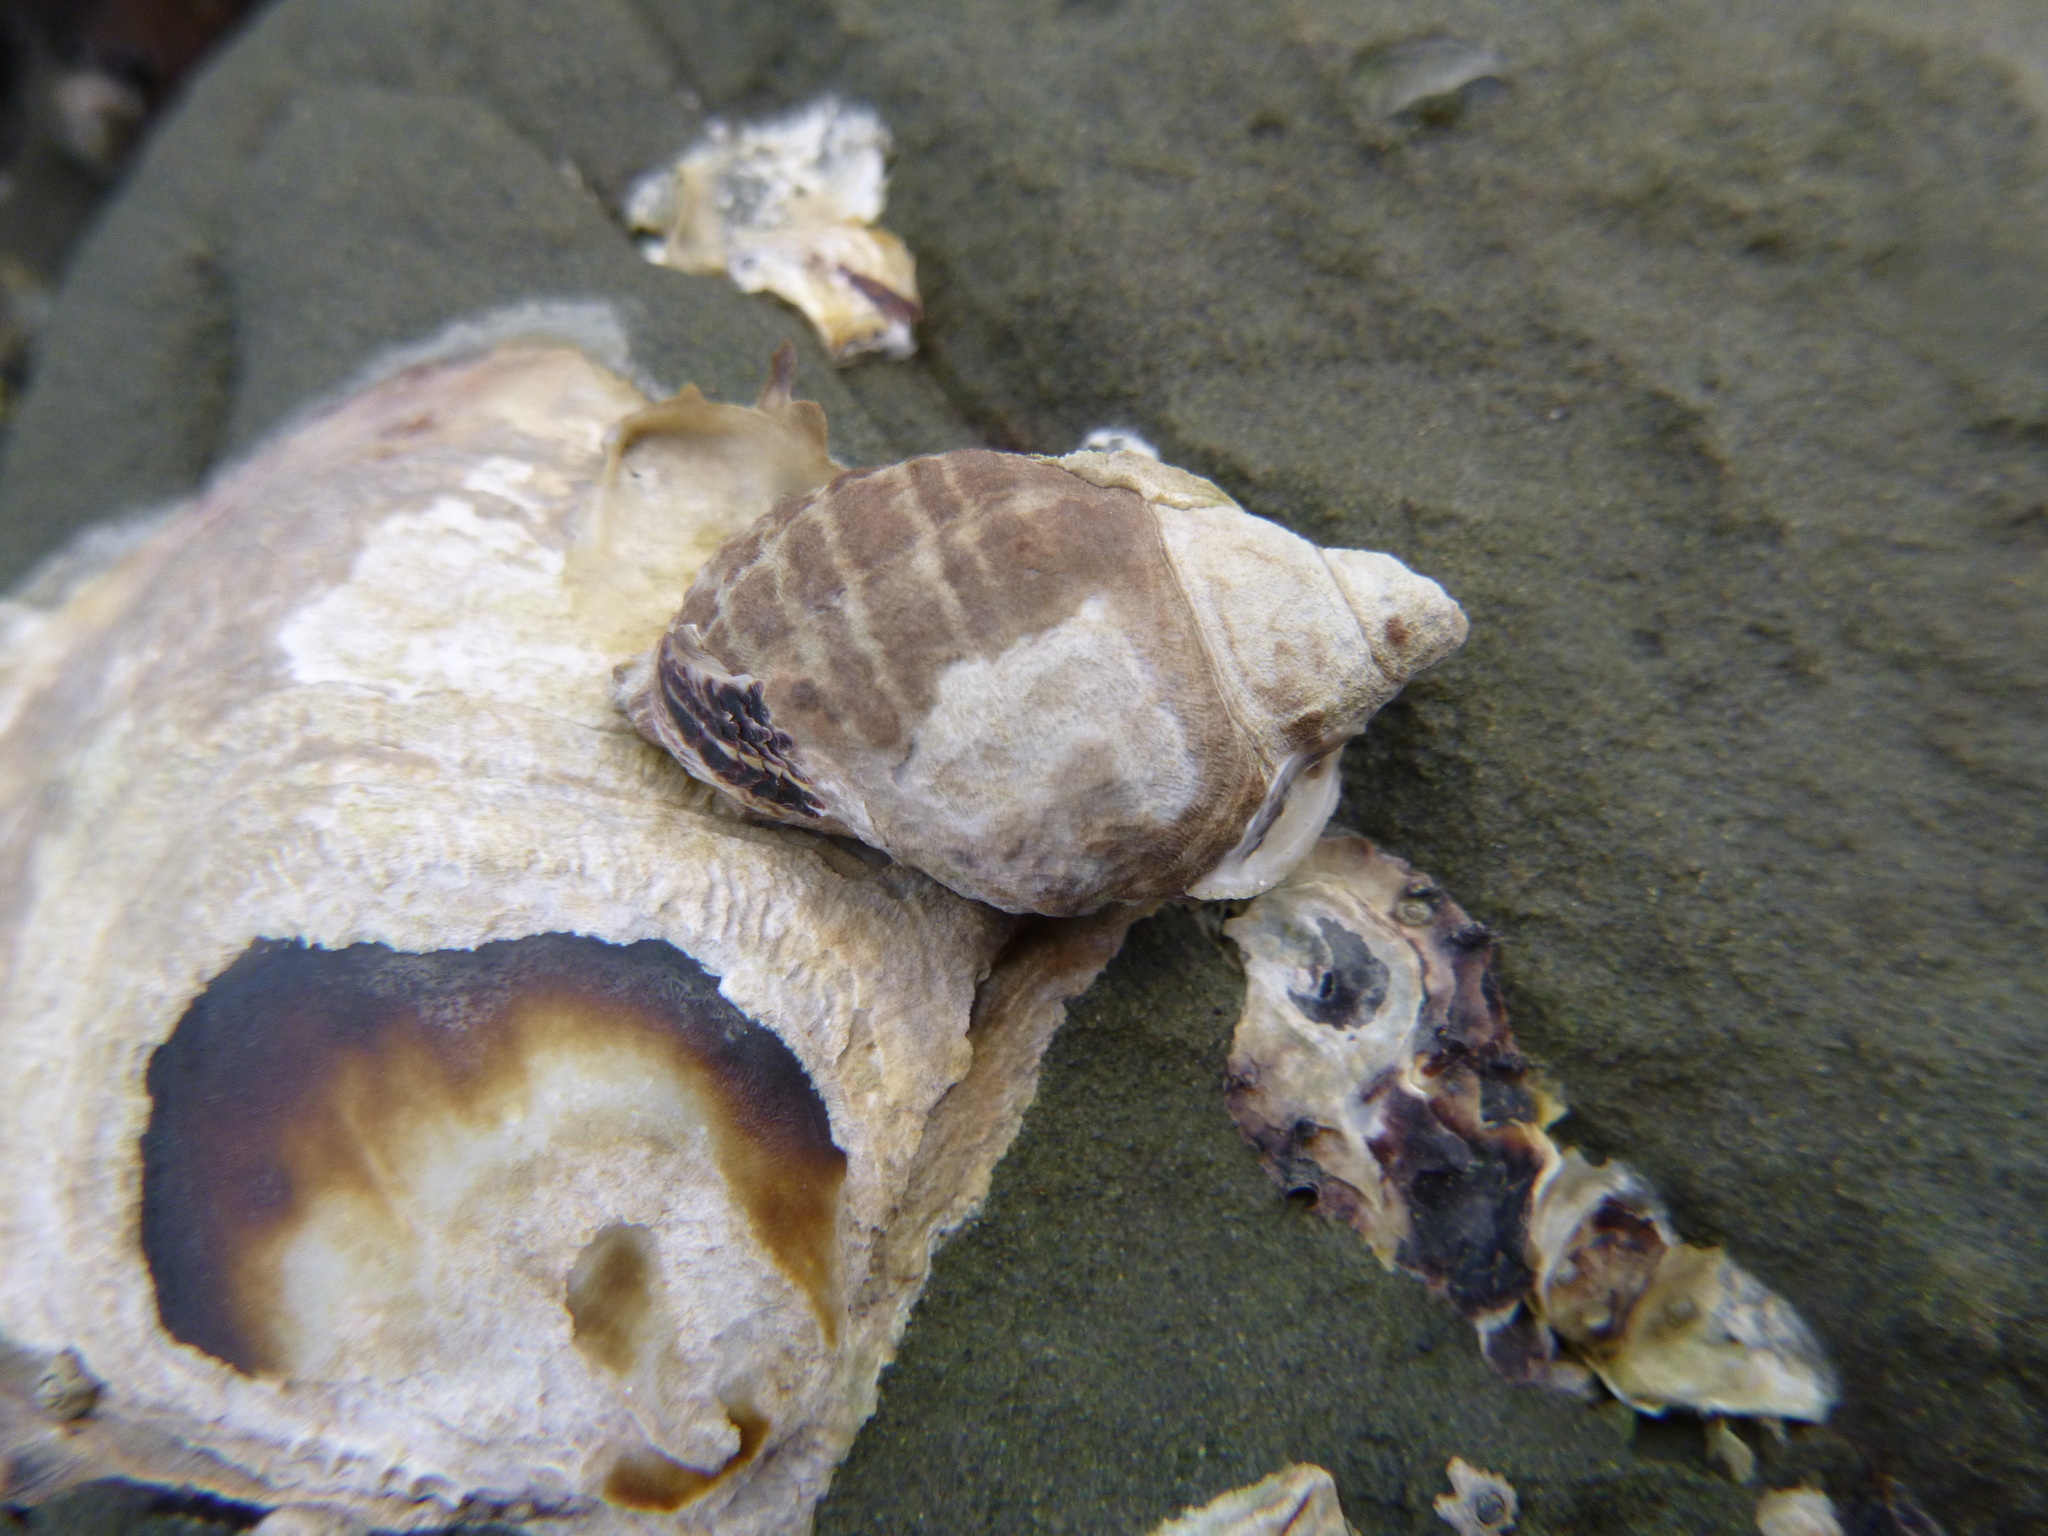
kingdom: Animalia
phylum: Mollusca
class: Gastropoda
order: Neogastropoda
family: Muricidae
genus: Haustrum
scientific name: Haustrum albomarginatum
